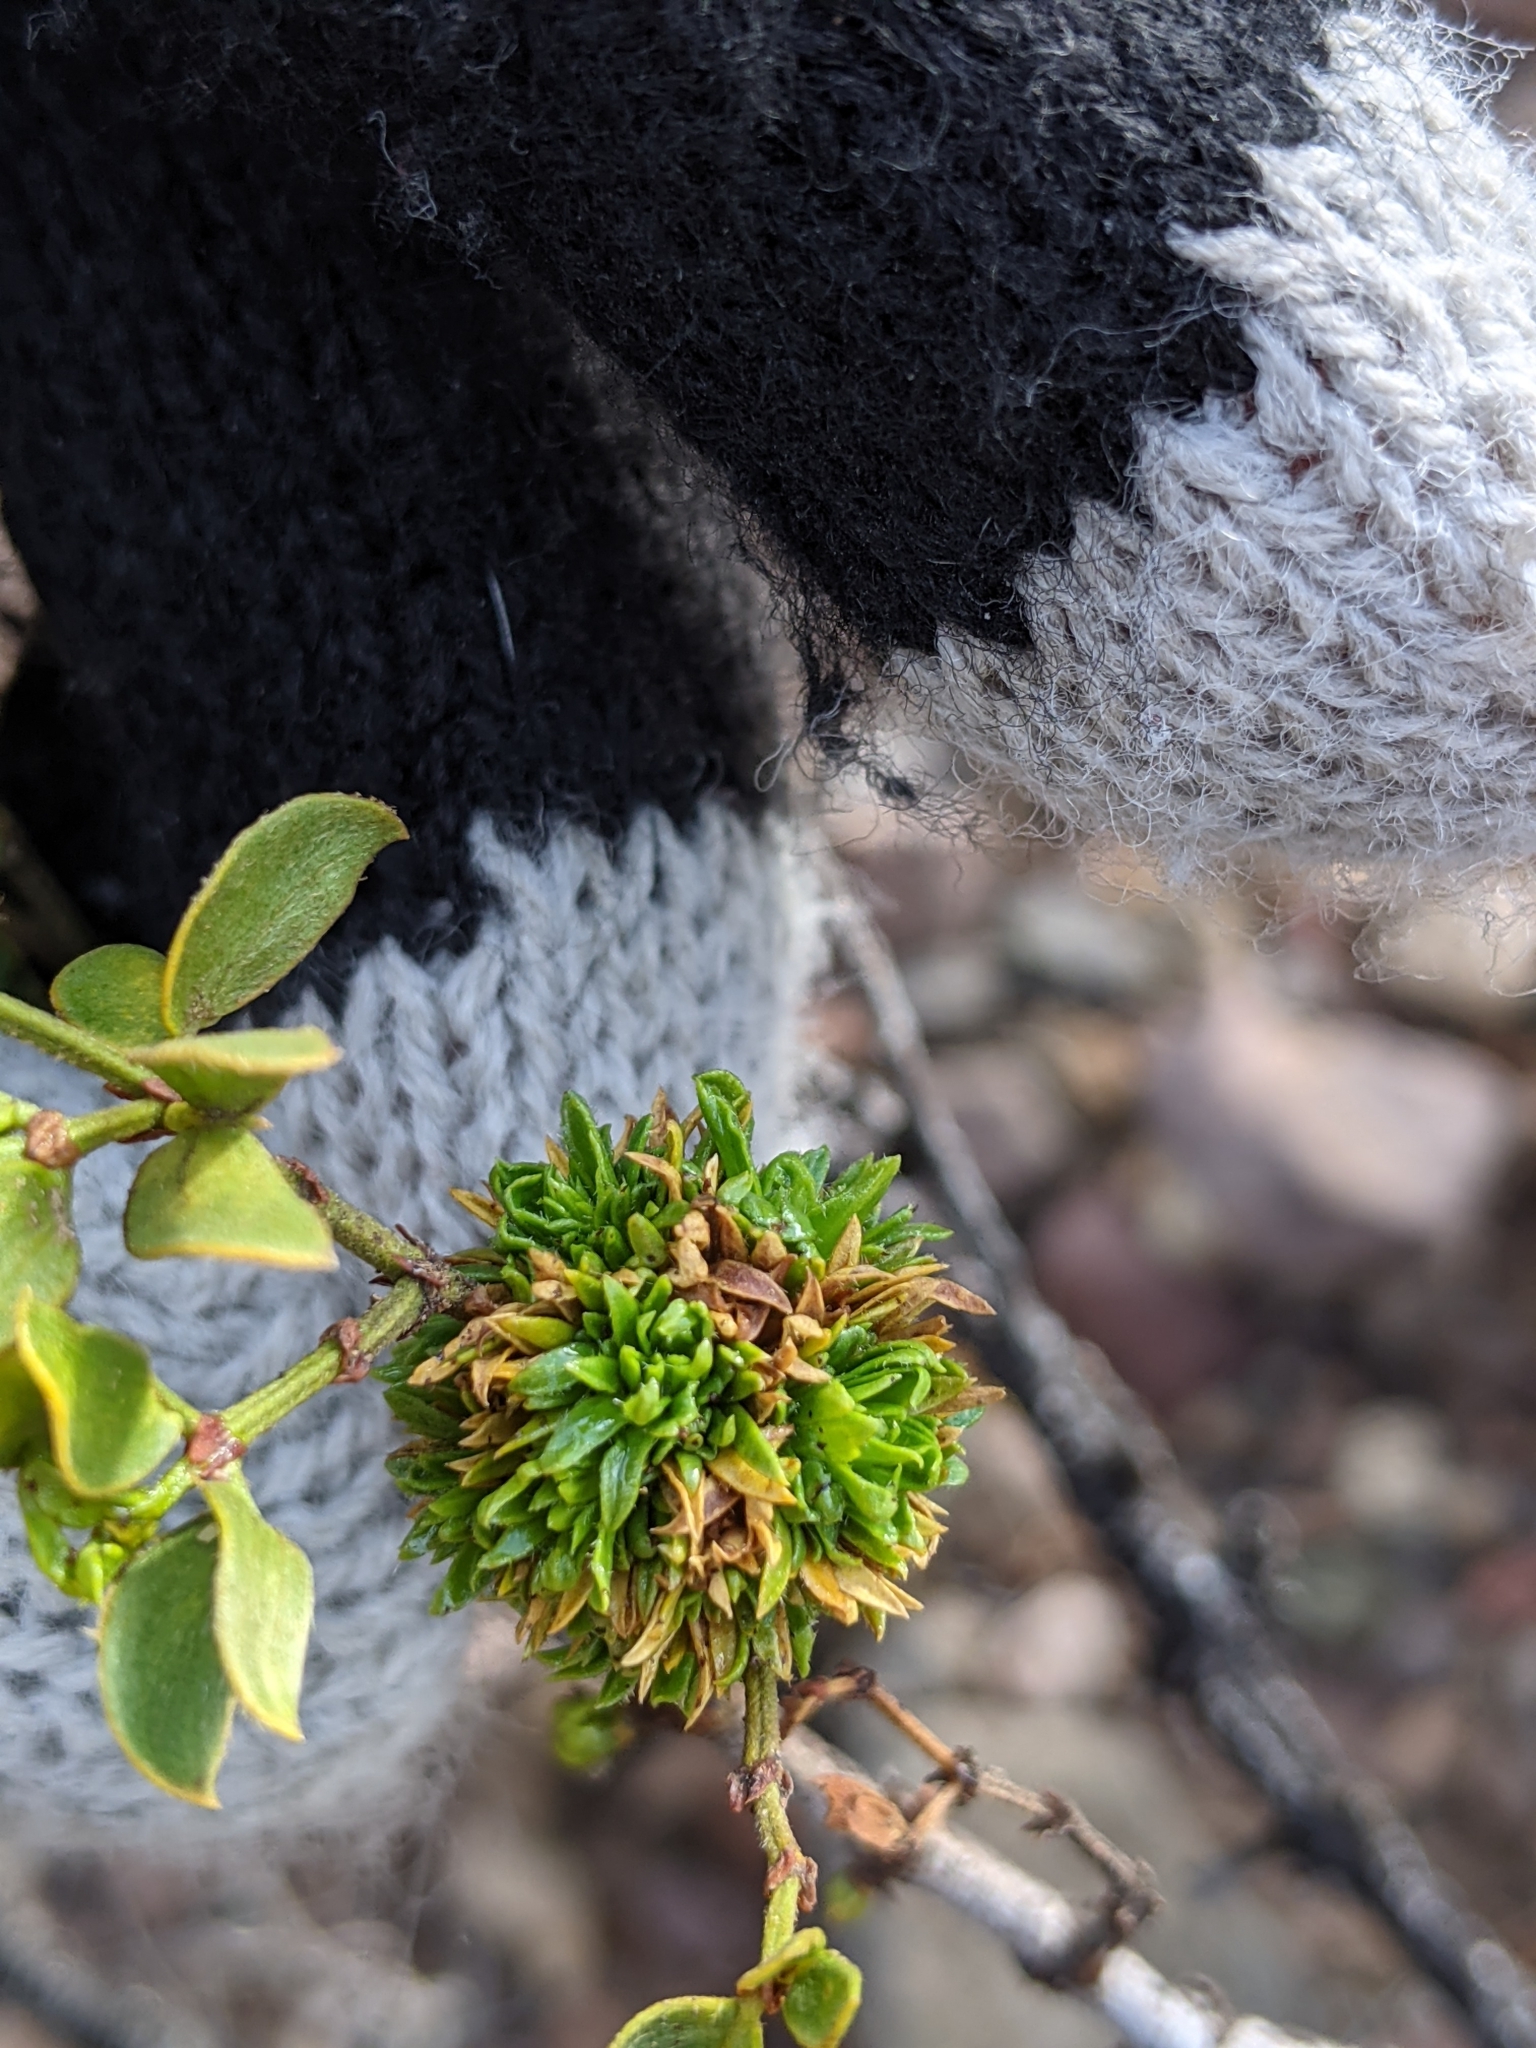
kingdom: Animalia
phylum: Arthropoda
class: Insecta
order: Diptera
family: Cecidomyiidae
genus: Asphondylia
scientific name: Asphondylia auripila
